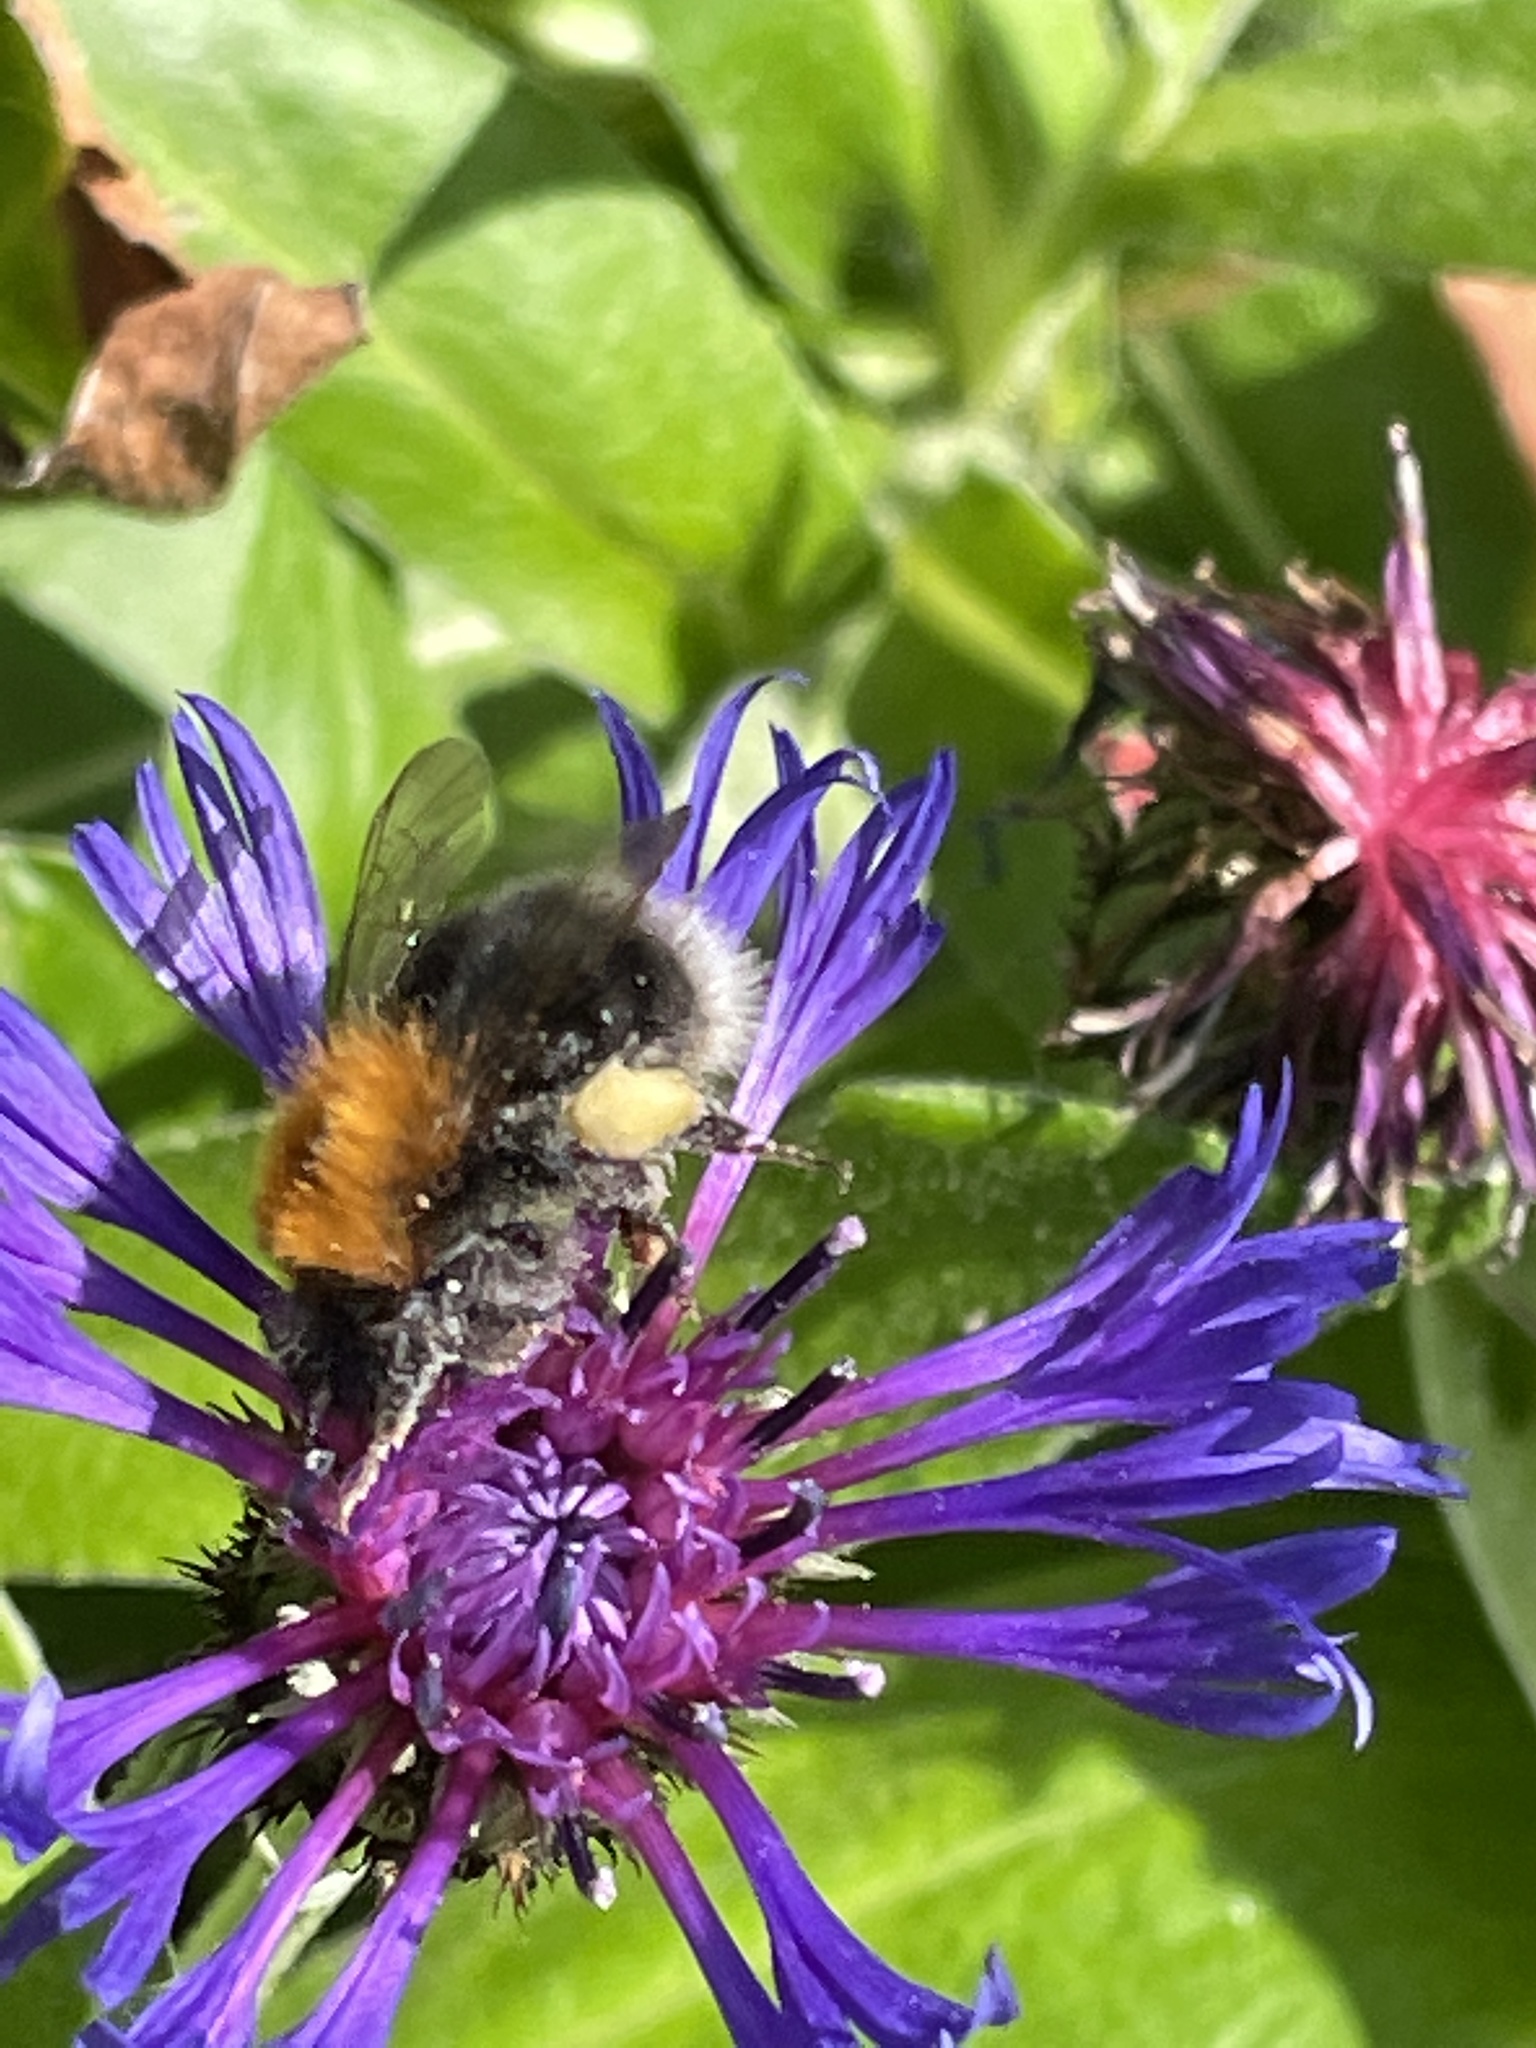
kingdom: Animalia
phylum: Arthropoda
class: Insecta
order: Hymenoptera
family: Apidae
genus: Bombus
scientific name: Bombus hypnorum
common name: New garden bumblebee
